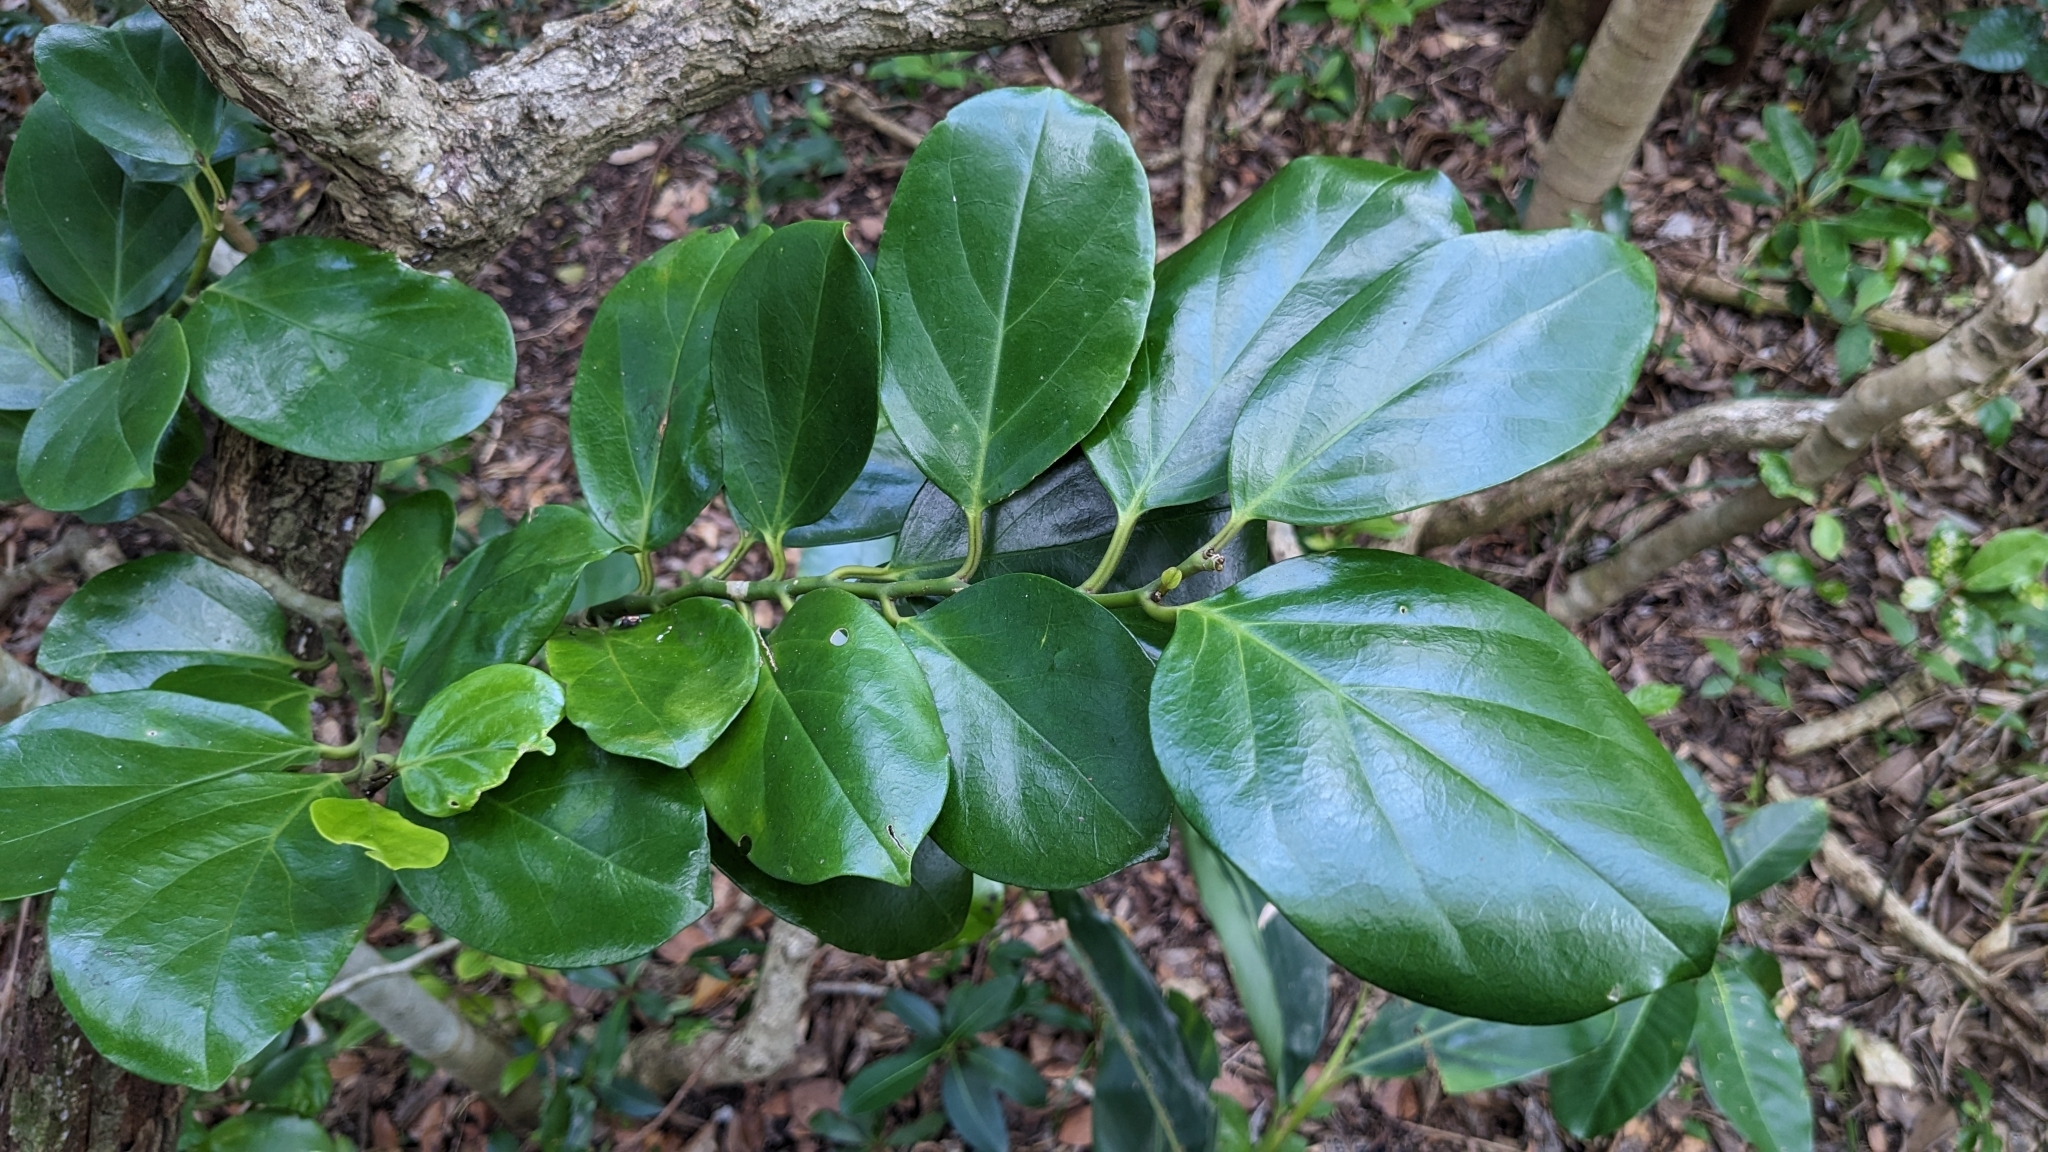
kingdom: Plantae
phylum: Tracheophyta
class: Magnoliopsida
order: Cardiopteridales
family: Stemonuraceae
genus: Gomphandra
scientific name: Gomphandra luzoniensis
